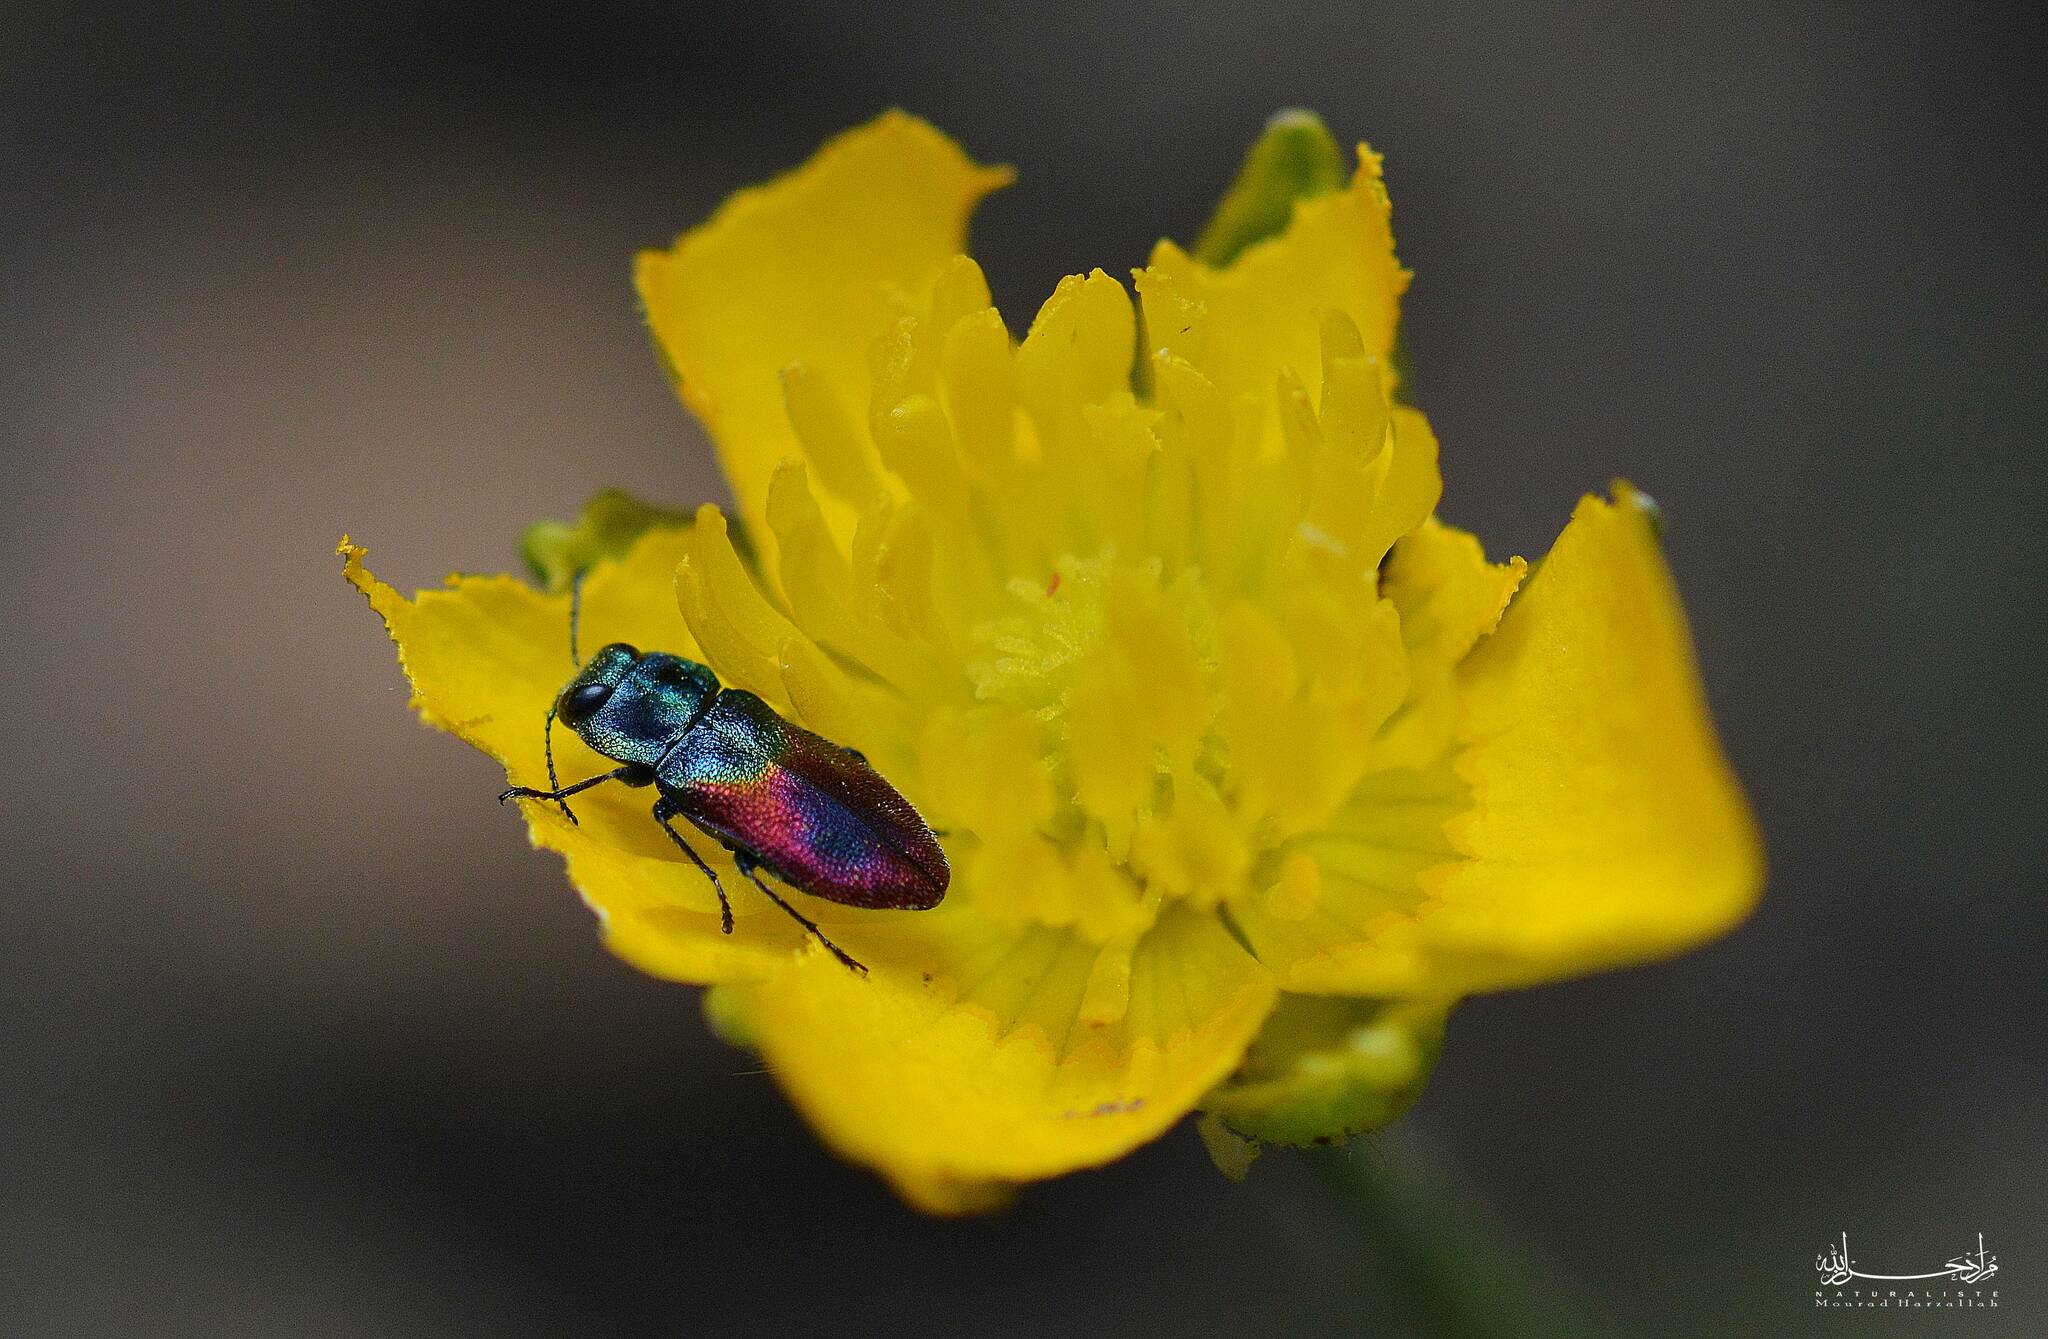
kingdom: Animalia
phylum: Arthropoda
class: Insecta
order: Coleoptera
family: Buprestidae
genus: Anthaxia
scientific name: Anthaxia salicis
